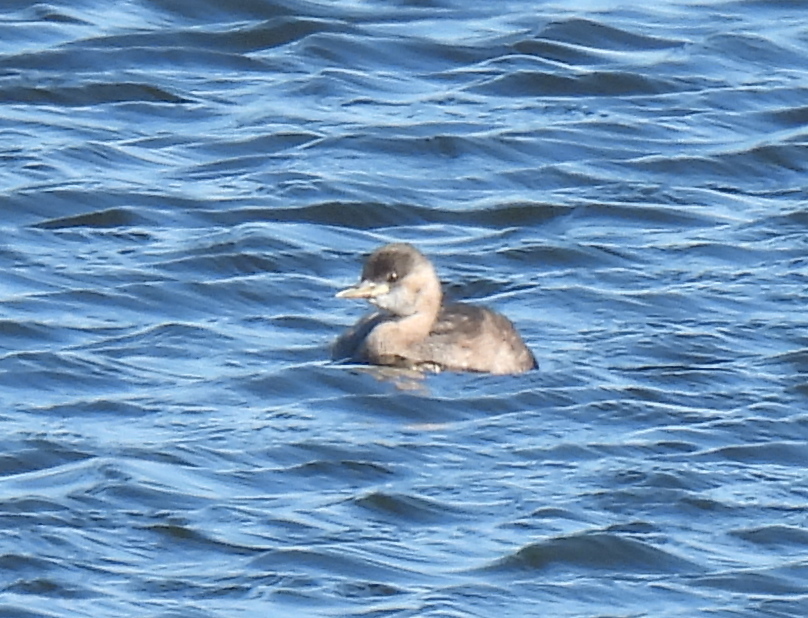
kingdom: Animalia
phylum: Chordata
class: Aves
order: Podicipediformes
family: Podicipedidae
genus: Tachybaptus
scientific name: Tachybaptus ruficollis
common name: Little grebe
